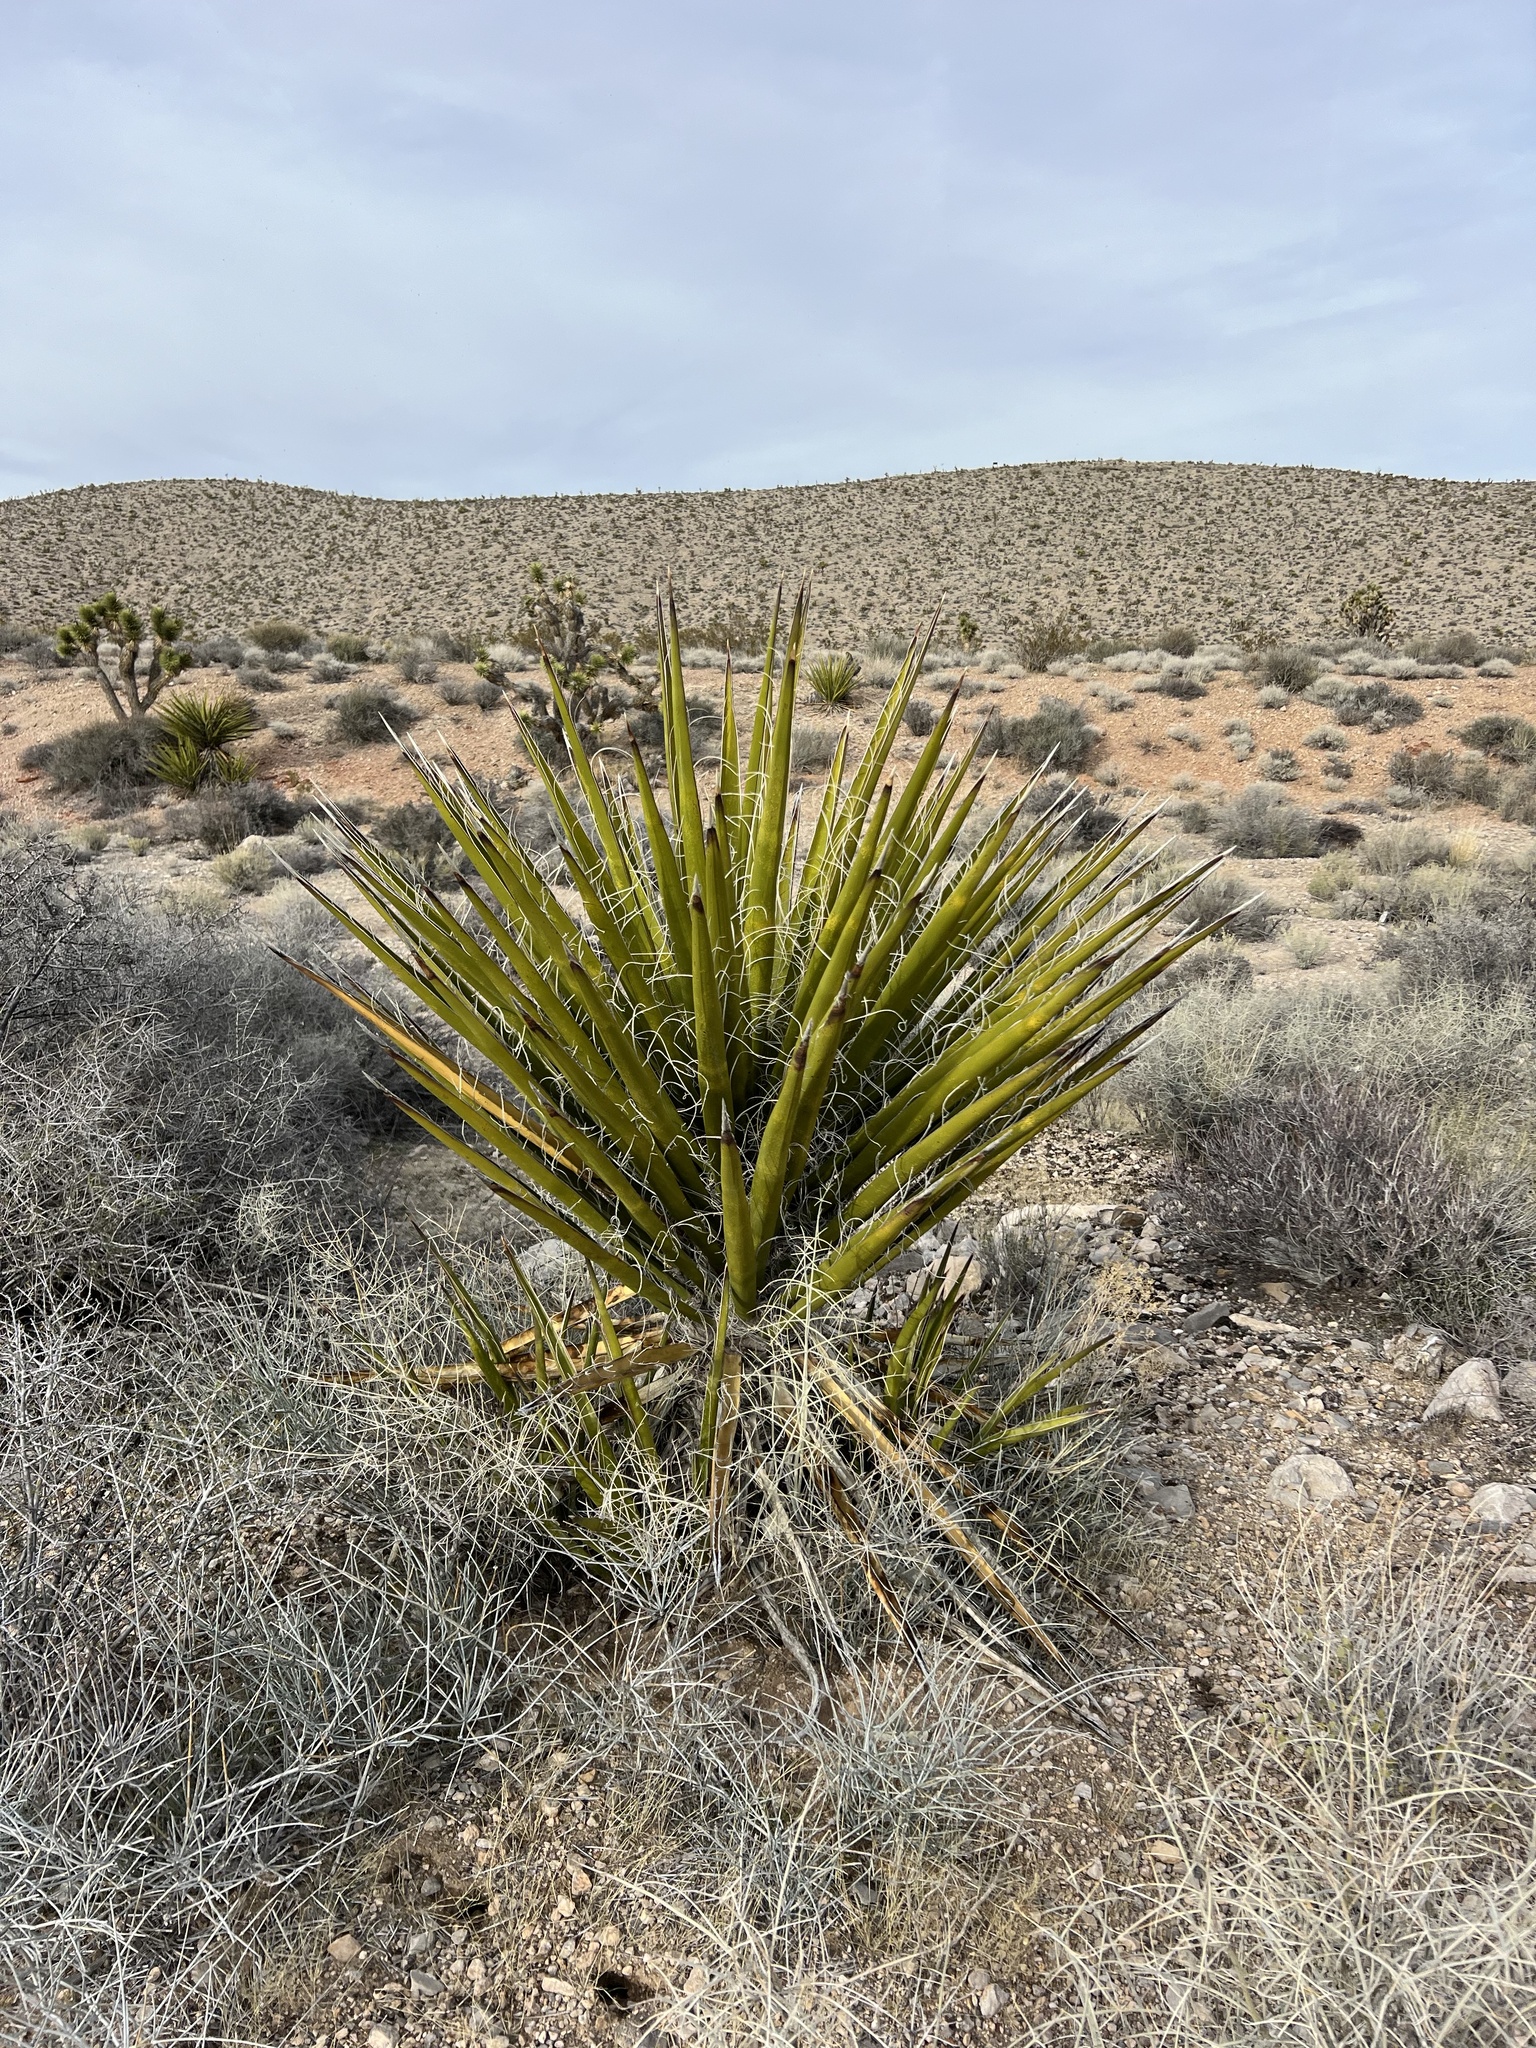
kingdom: Plantae
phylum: Tracheophyta
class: Liliopsida
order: Asparagales
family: Asparagaceae
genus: Yucca
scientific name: Yucca schidigera
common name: Mojave yucca
